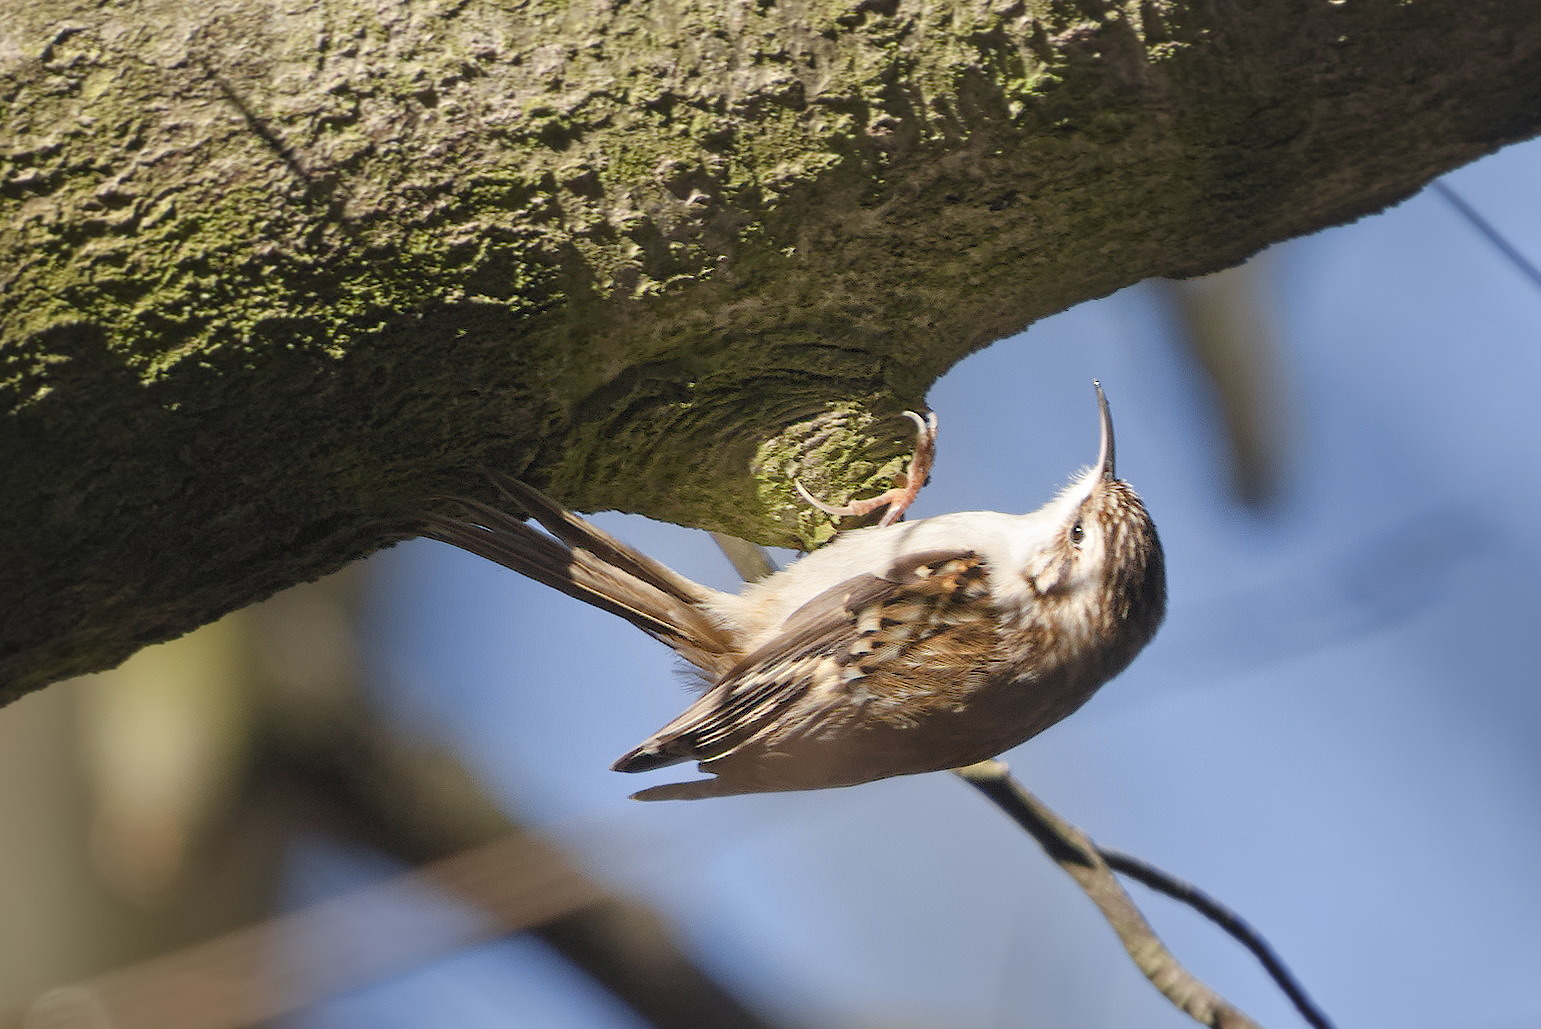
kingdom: Animalia
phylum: Chordata
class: Aves
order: Passeriformes
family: Certhiidae
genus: Certhia
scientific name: Certhia familiaris
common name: Eurasian treecreeper
